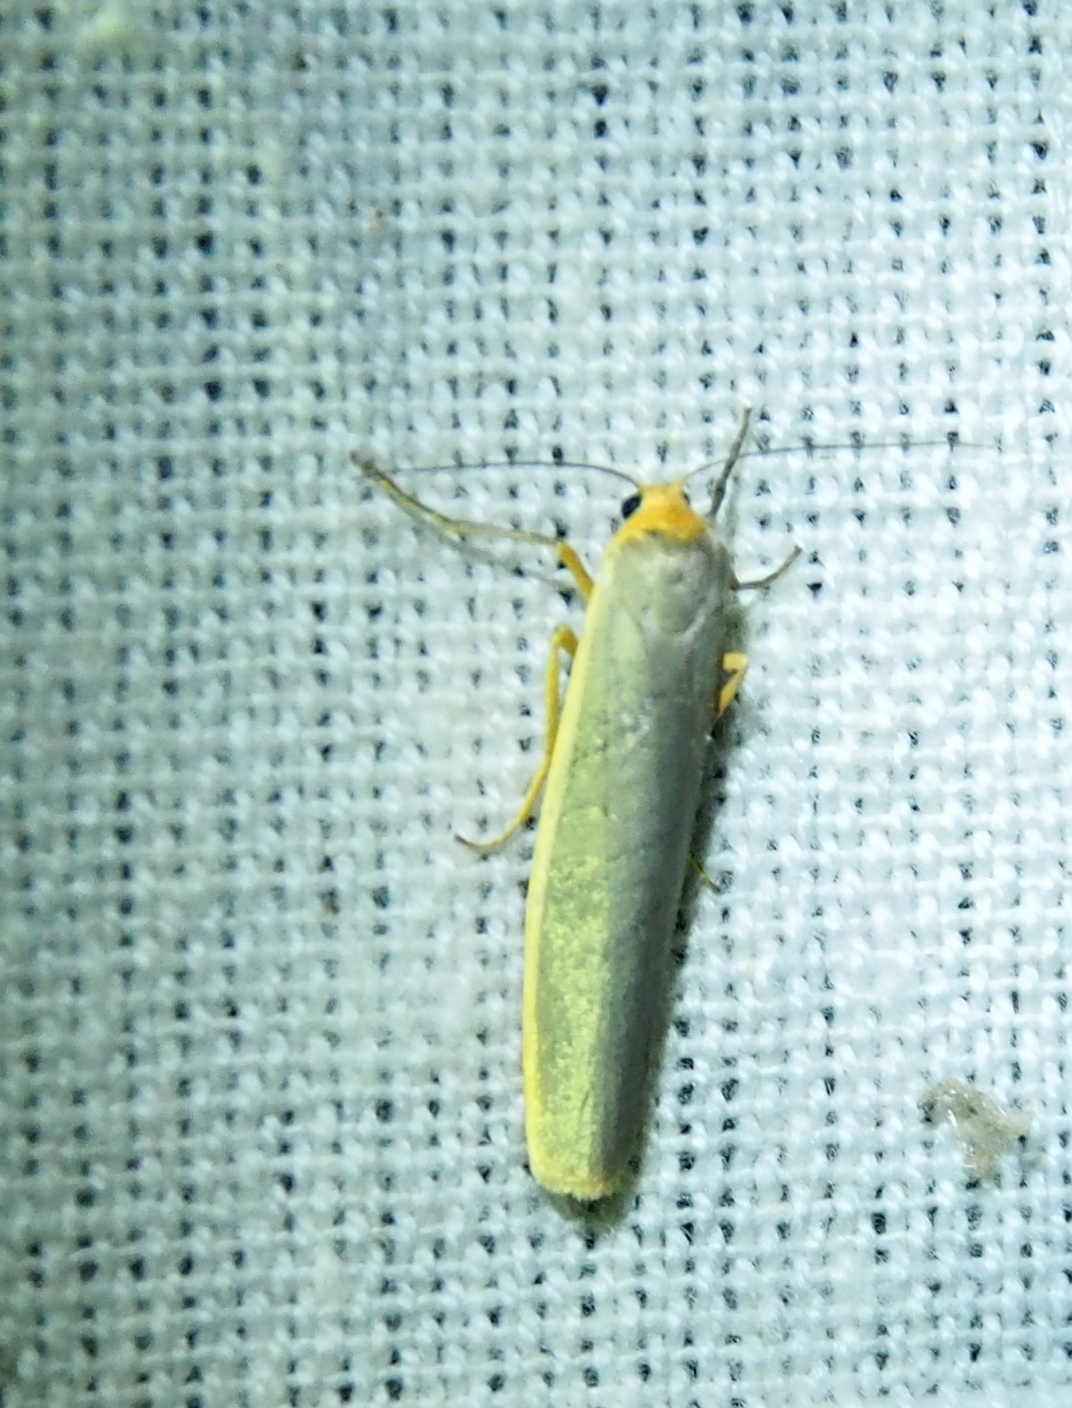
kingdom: Animalia
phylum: Arthropoda
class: Insecta
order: Lepidoptera
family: Erebidae
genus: Manulea
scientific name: Manulea complana
